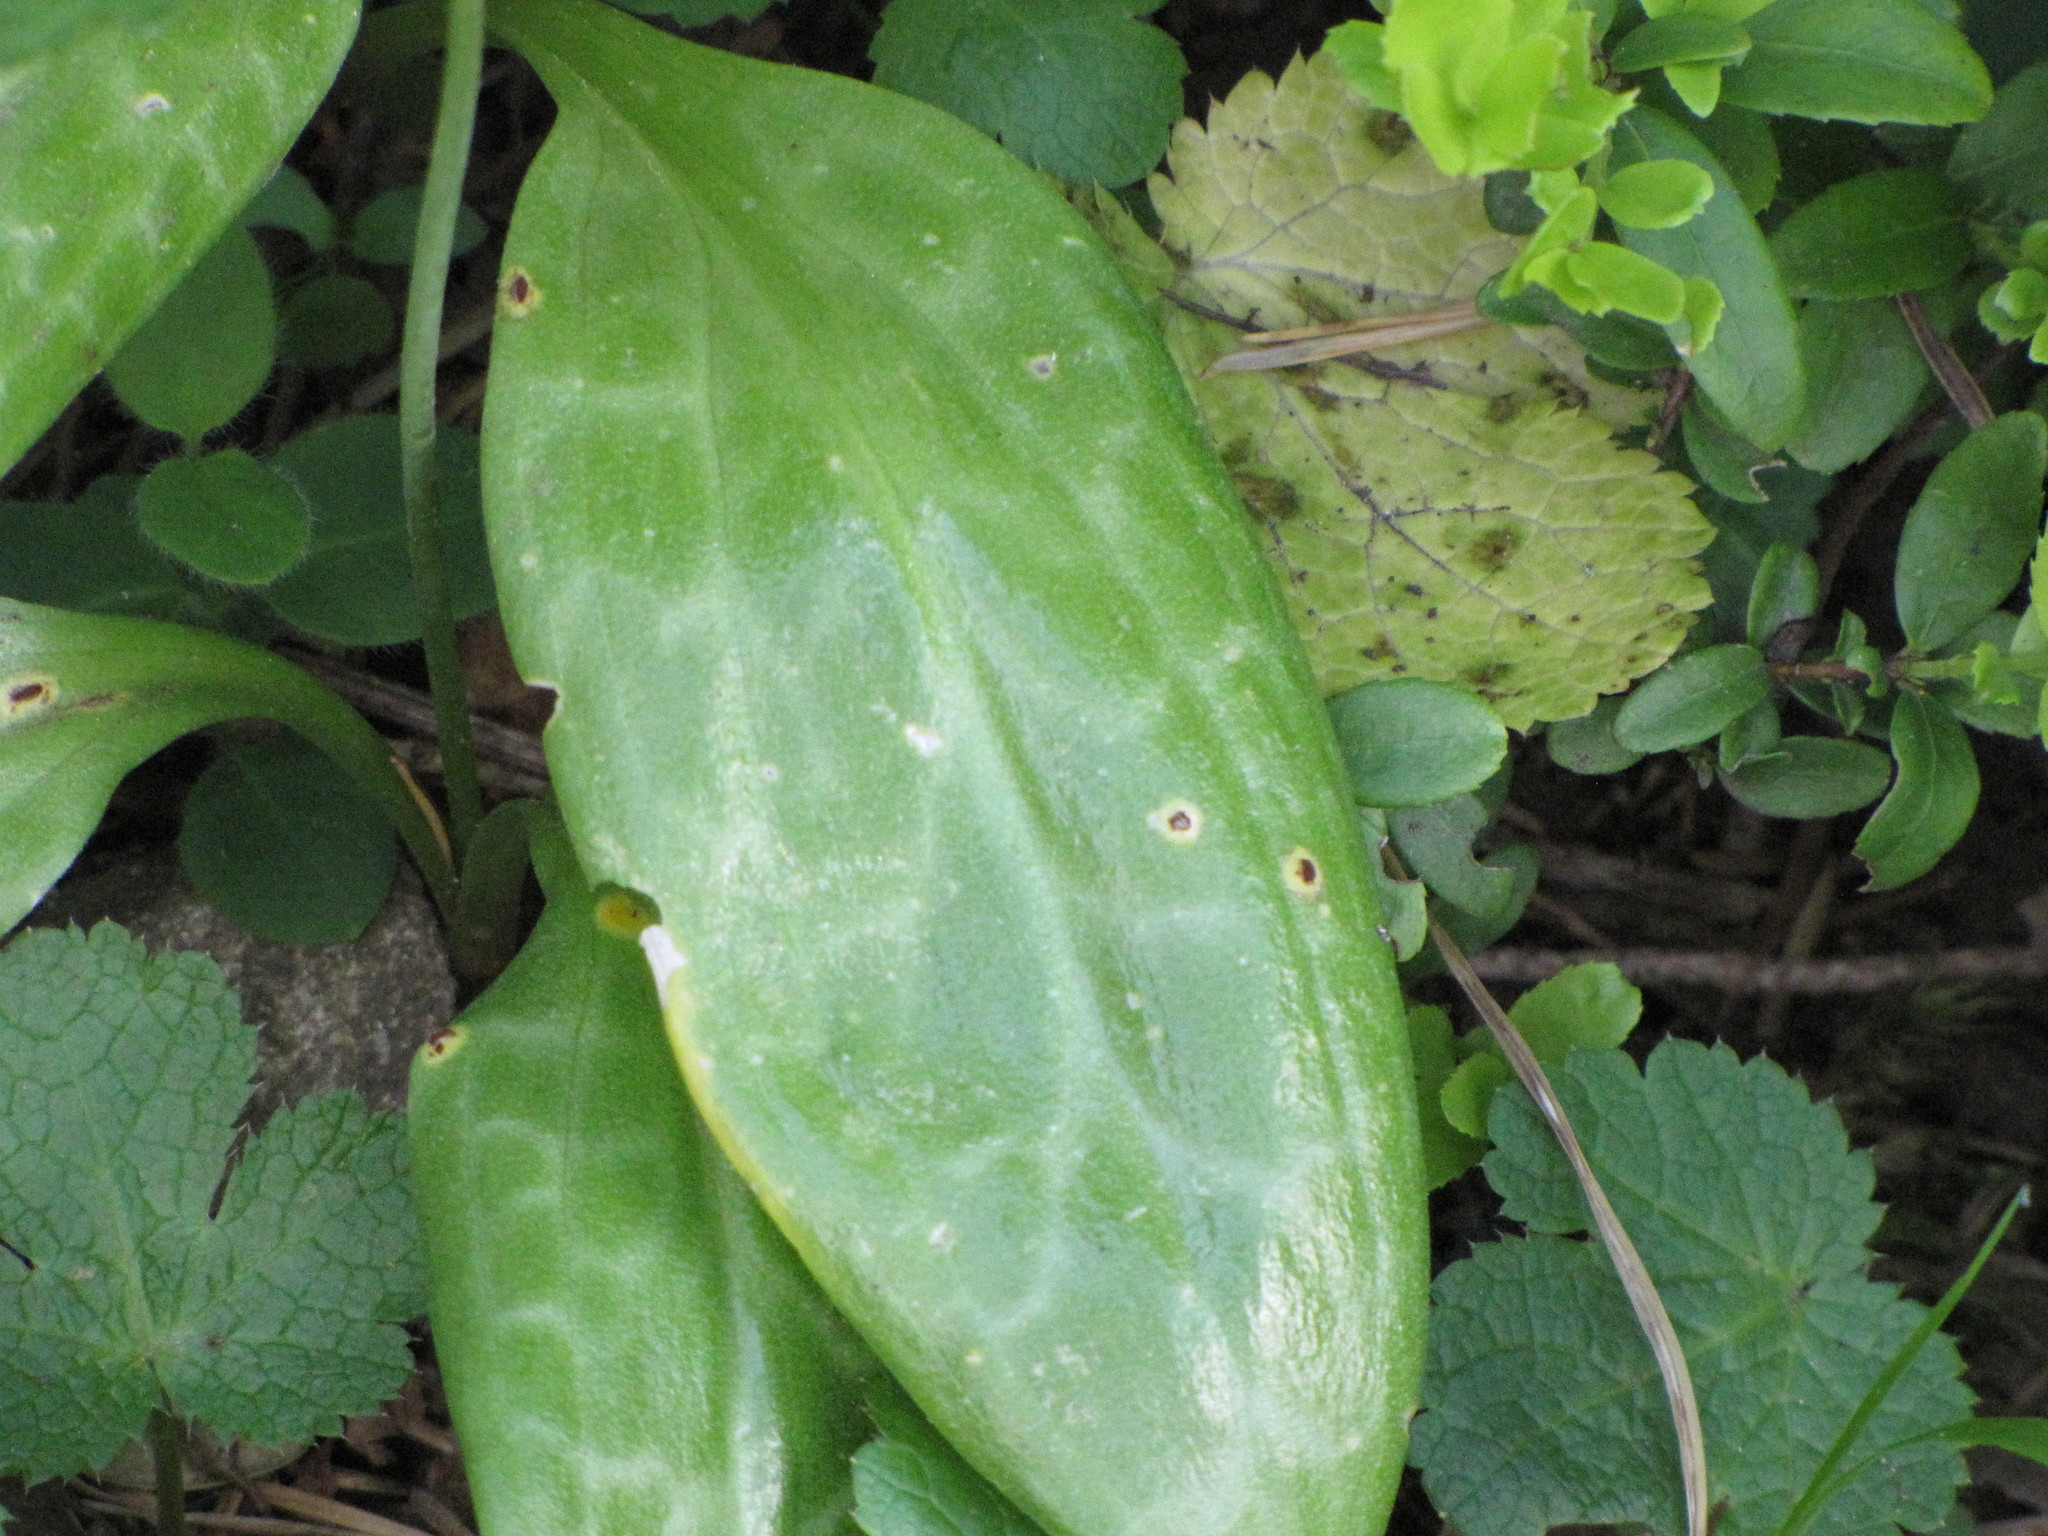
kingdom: Plantae
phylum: Tracheophyta
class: Liliopsida
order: Liliales
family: Liliaceae
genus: Erythronium
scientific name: Erythronium oregonum
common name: Giant adder's-tongue
